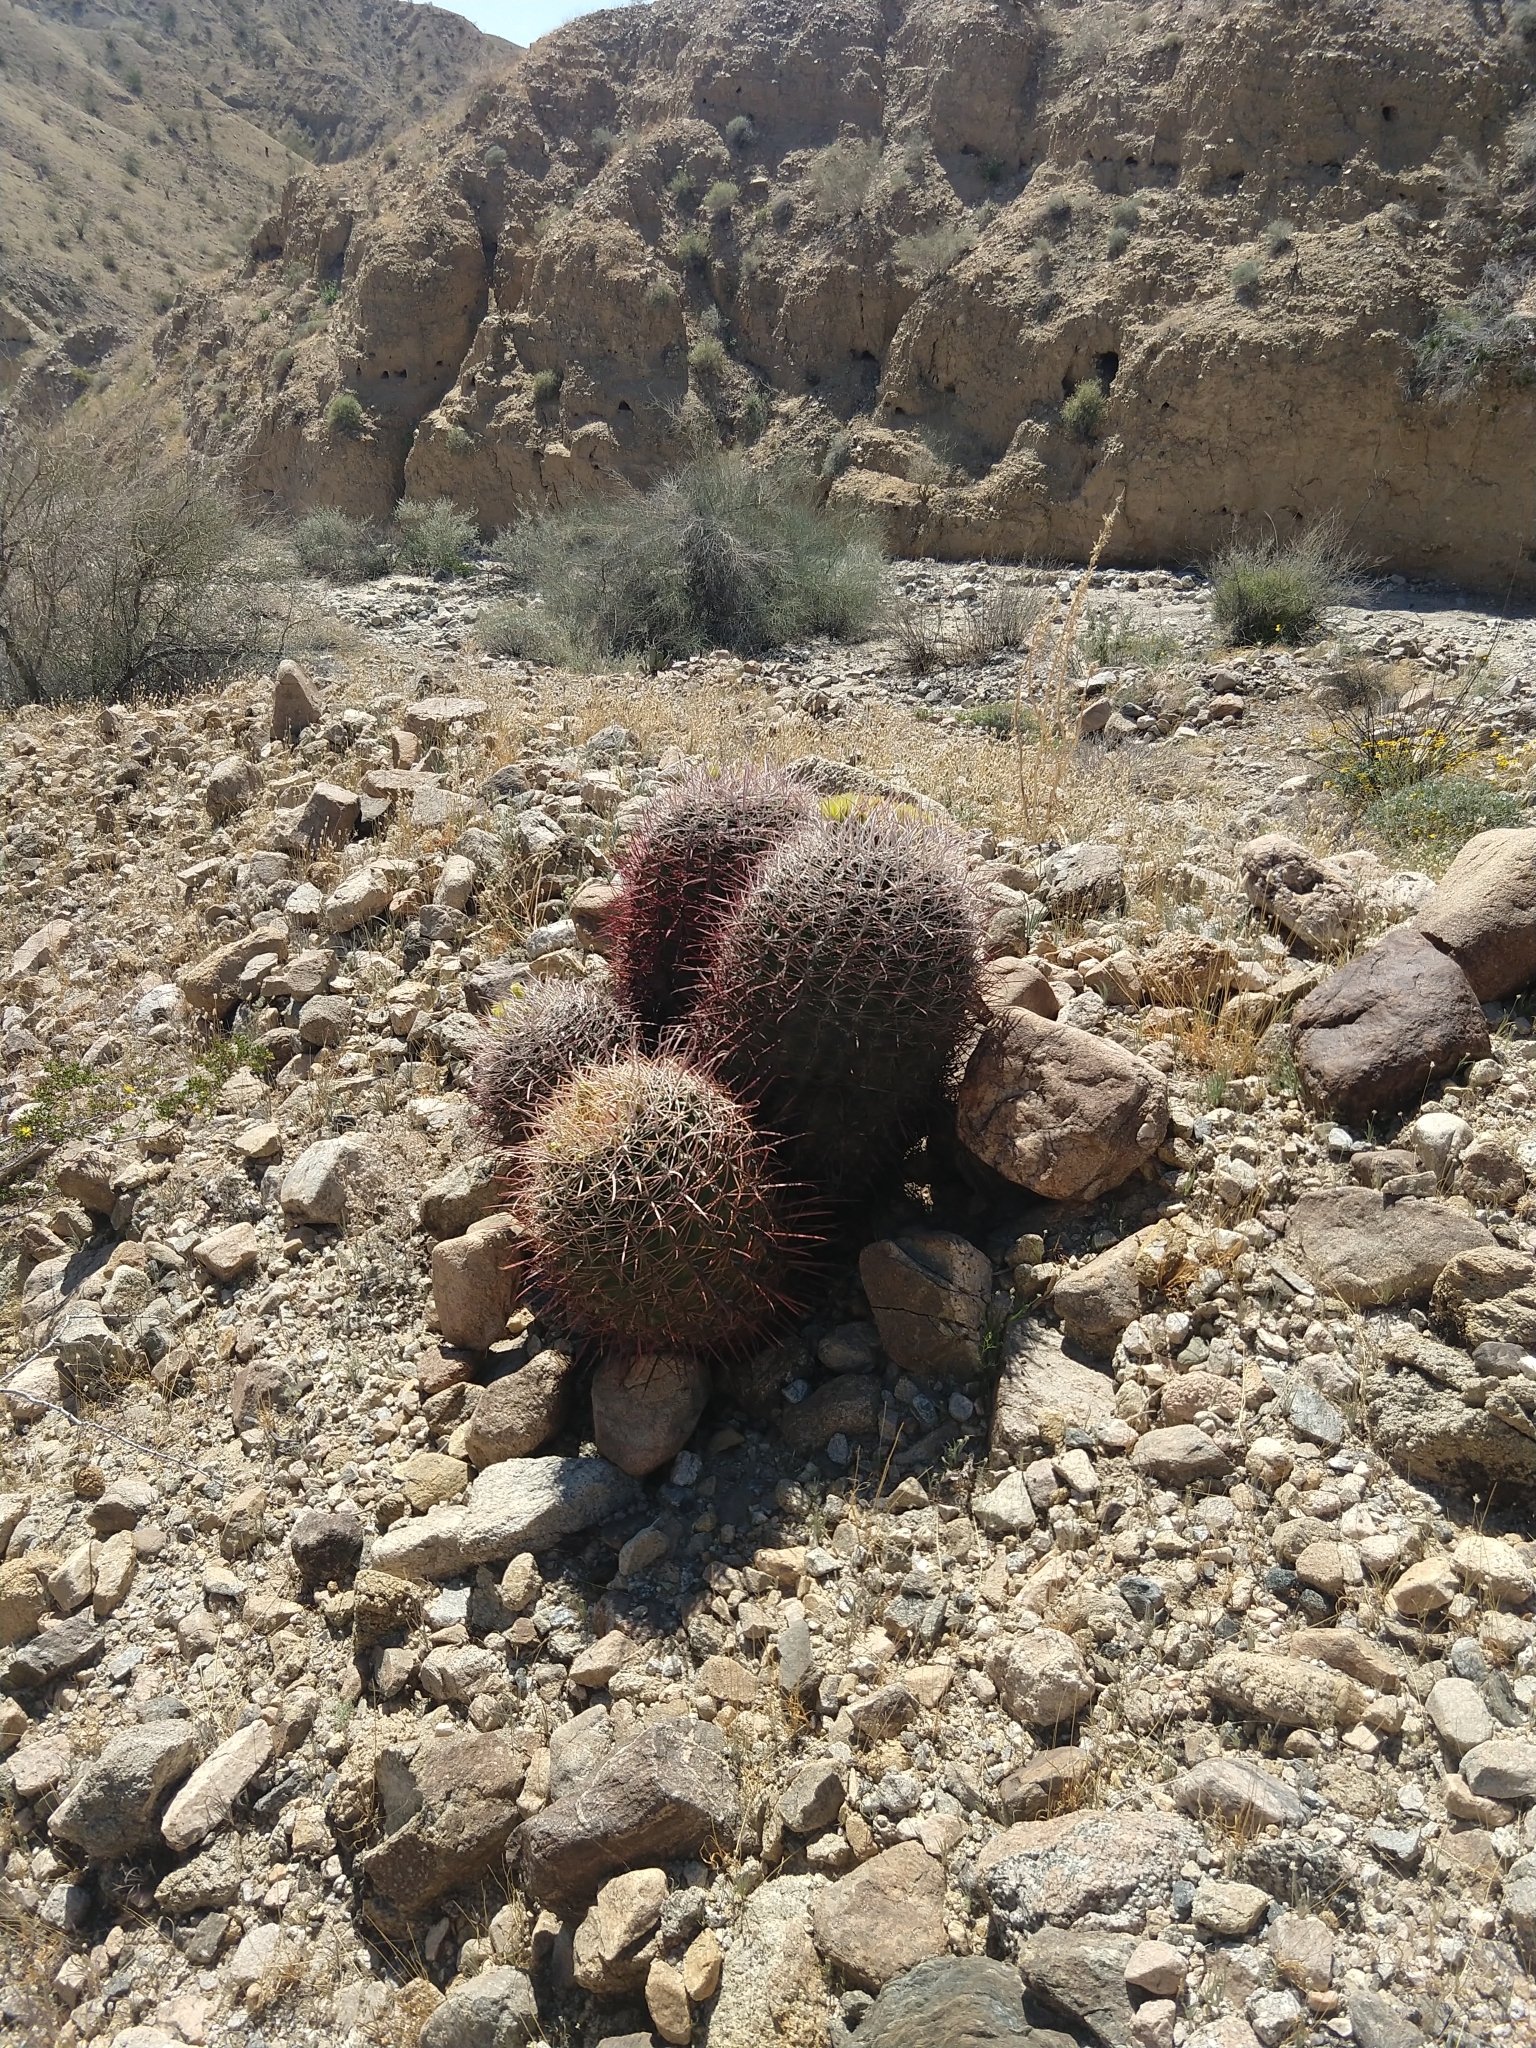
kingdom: Plantae
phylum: Tracheophyta
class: Magnoliopsida
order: Caryophyllales
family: Cactaceae
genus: Ferocactus
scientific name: Ferocactus cylindraceus
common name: California barrel cactus
